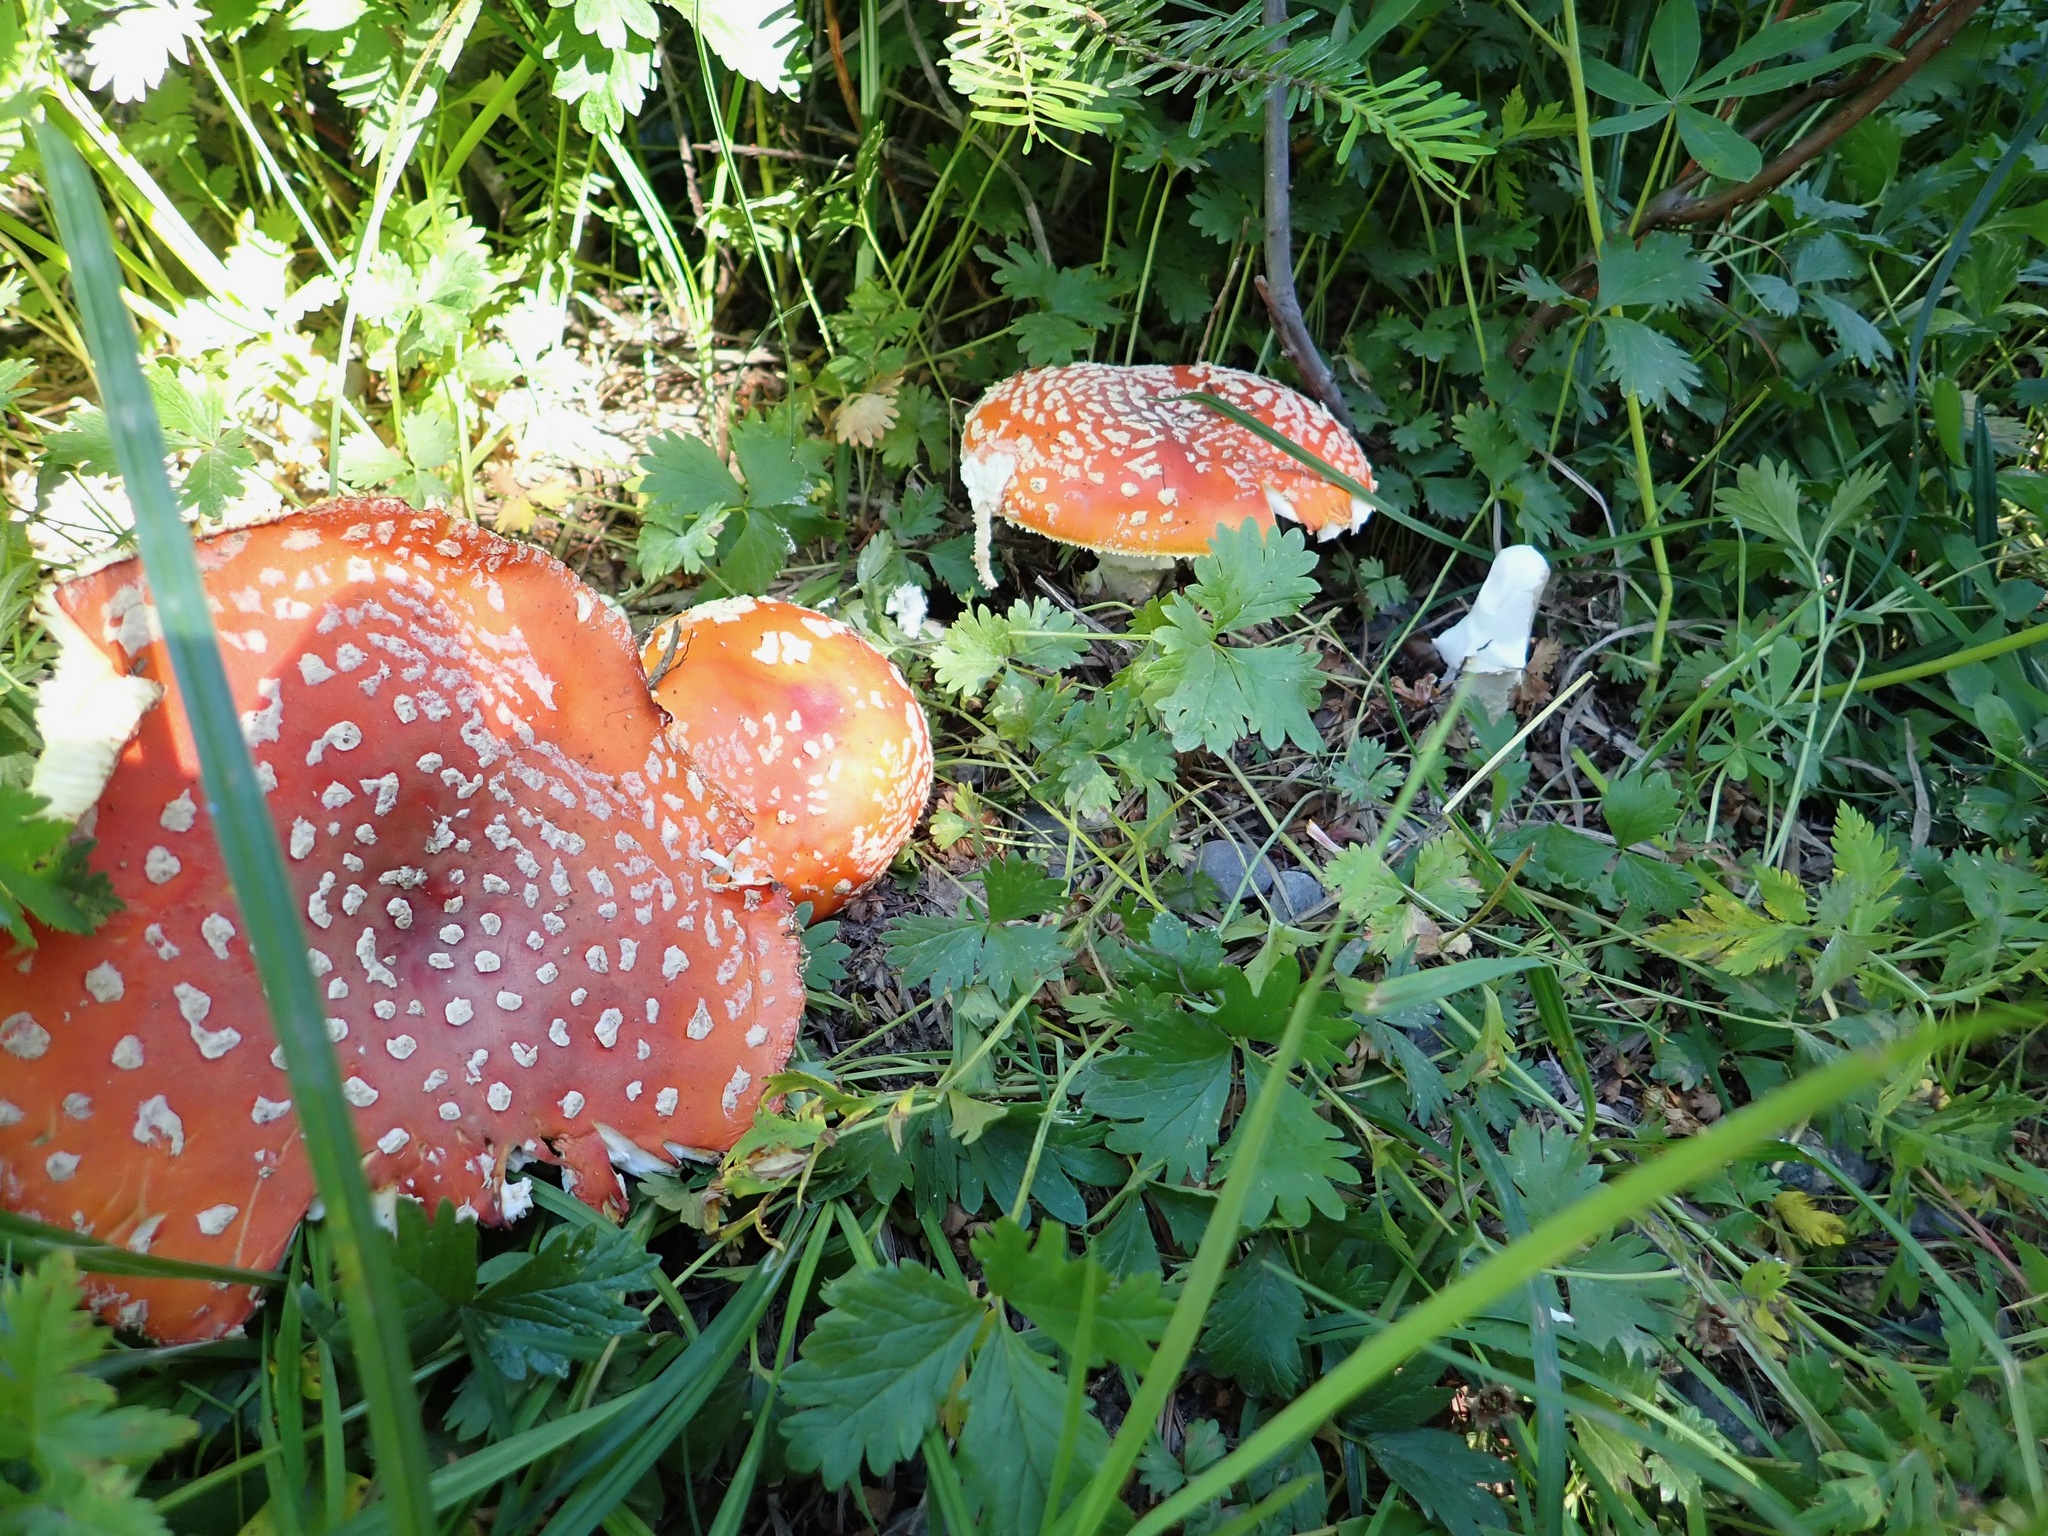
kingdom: Fungi
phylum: Basidiomycota
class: Agaricomycetes
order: Agaricales
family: Amanitaceae
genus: Amanita
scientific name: Amanita muscaria
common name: Fly agaric
